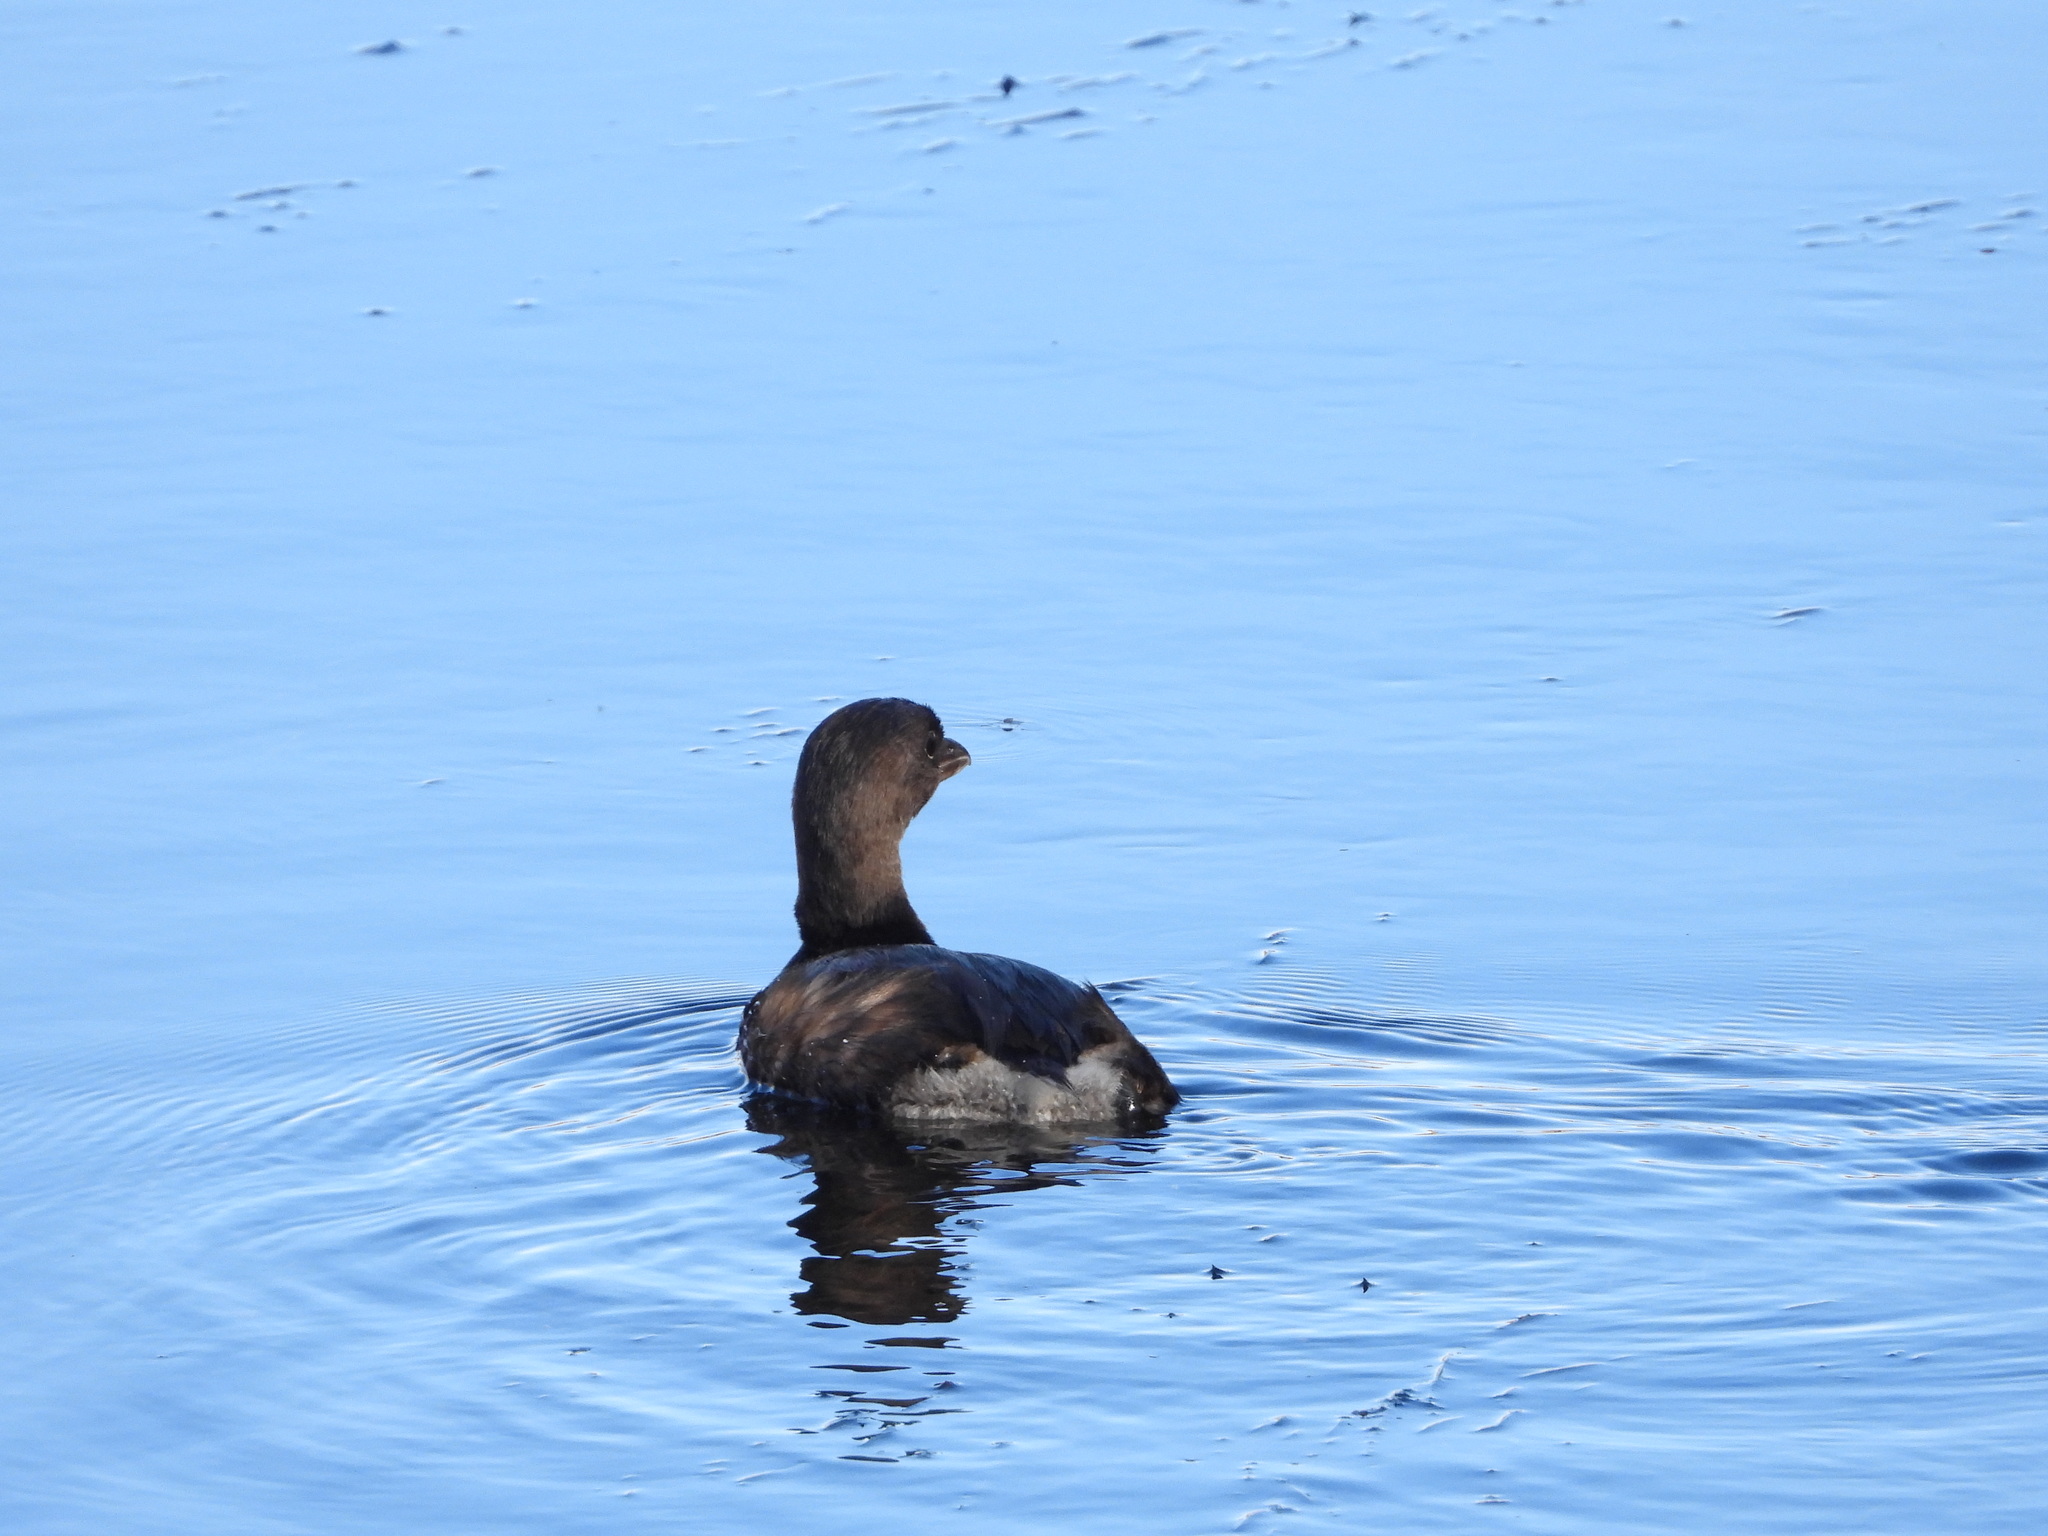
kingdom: Animalia
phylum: Chordata
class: Aves
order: Podicipediformes
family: Podicipedidae
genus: Podilymbus
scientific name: Podilymbus podiceps
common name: Pied-billed grebe
